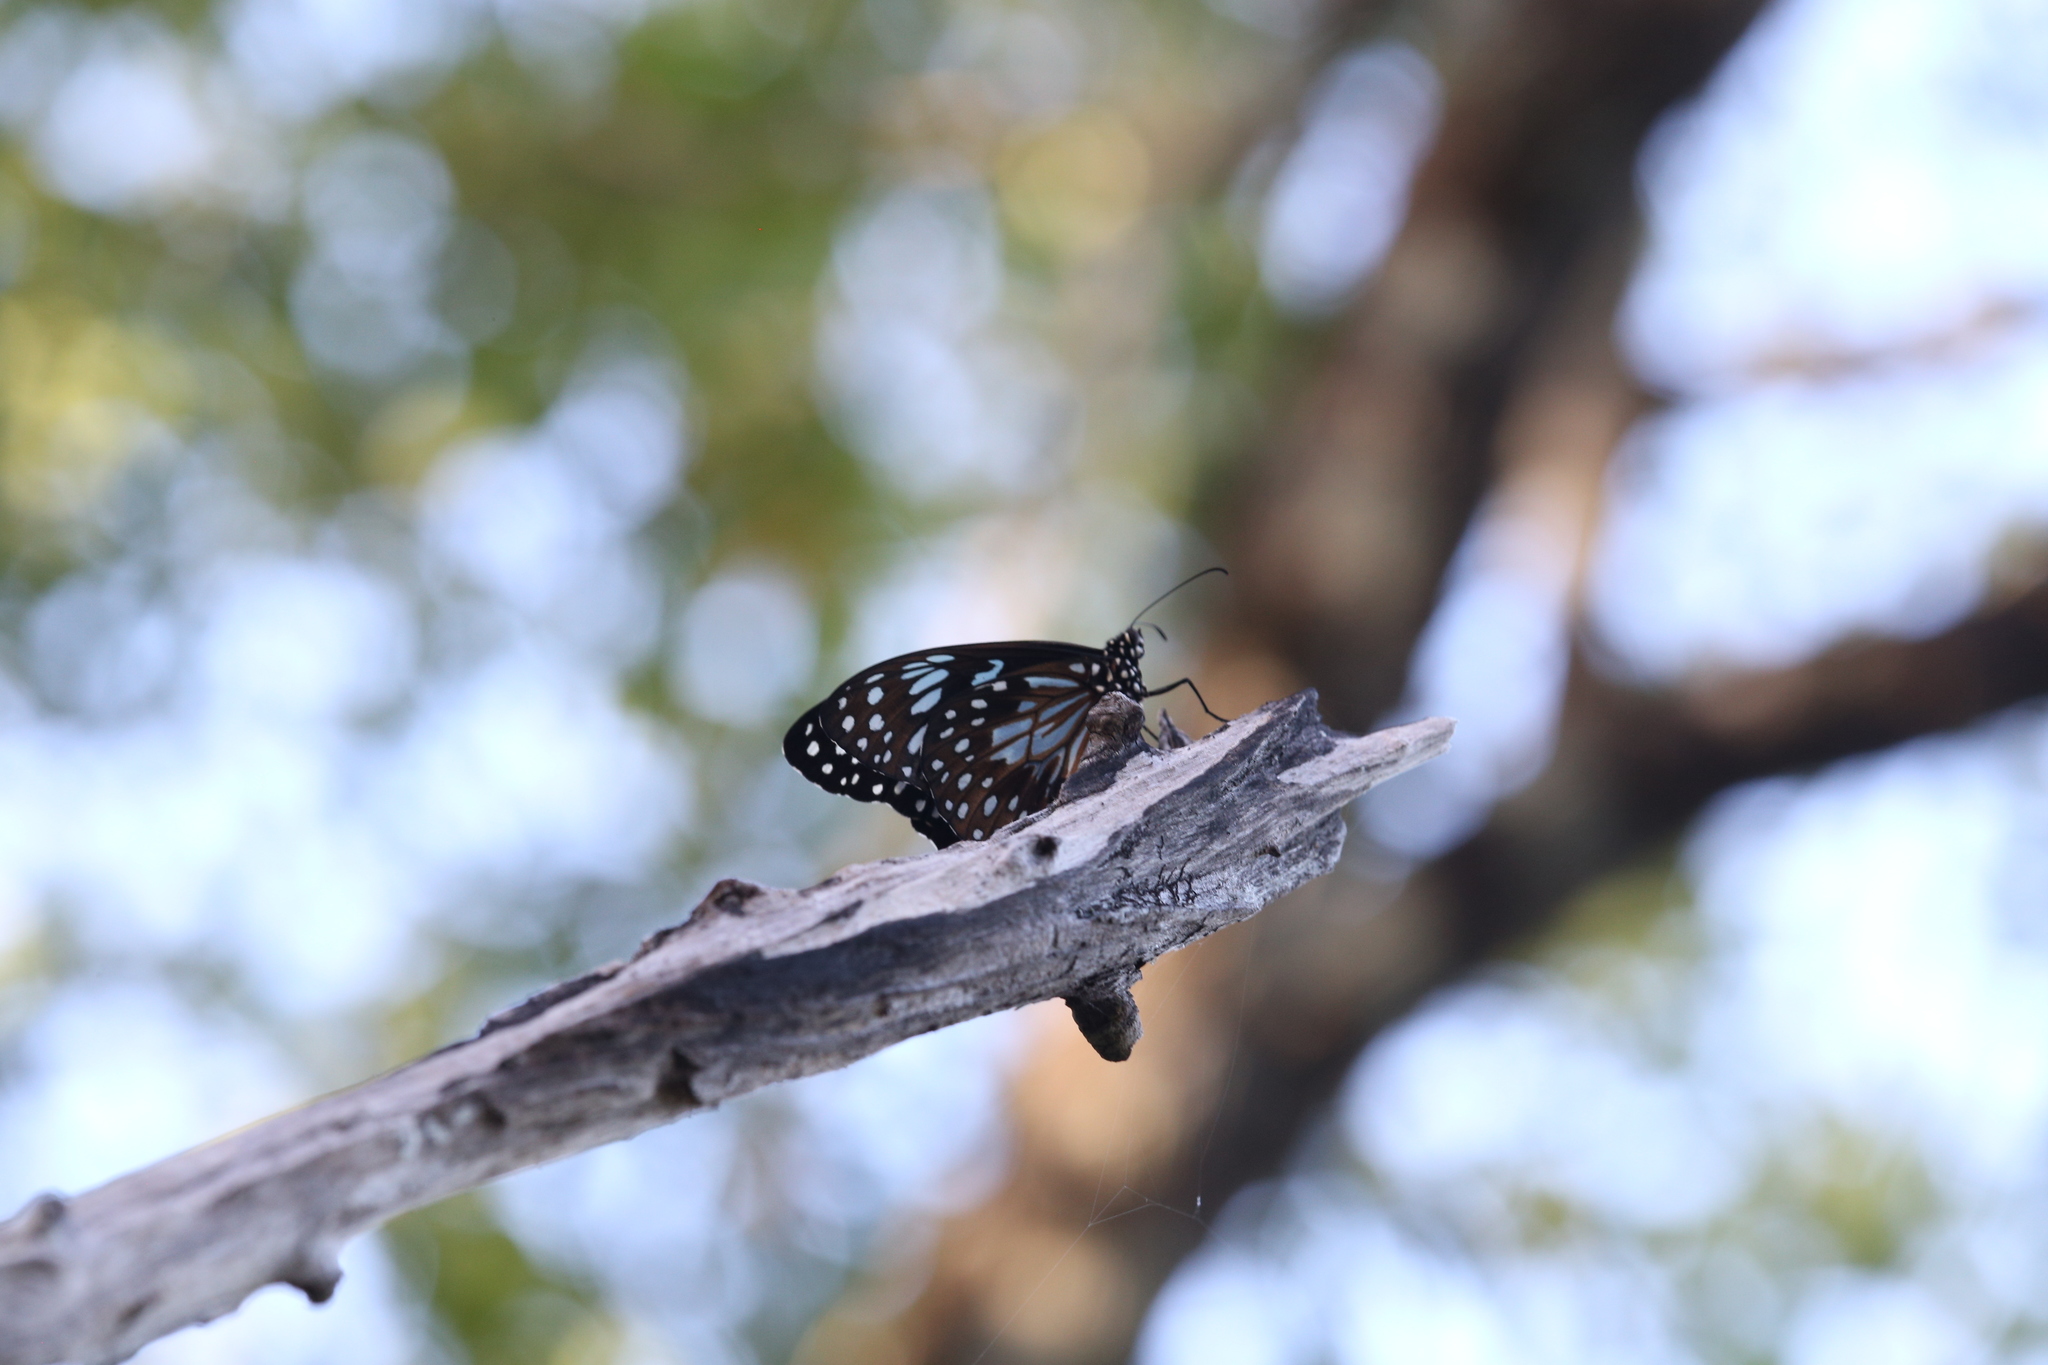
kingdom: Animalia
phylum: Arthropoda
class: Insecta
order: Lepidoptera
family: Nymphalidae
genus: Tirumala
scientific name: Tirumala hamata
